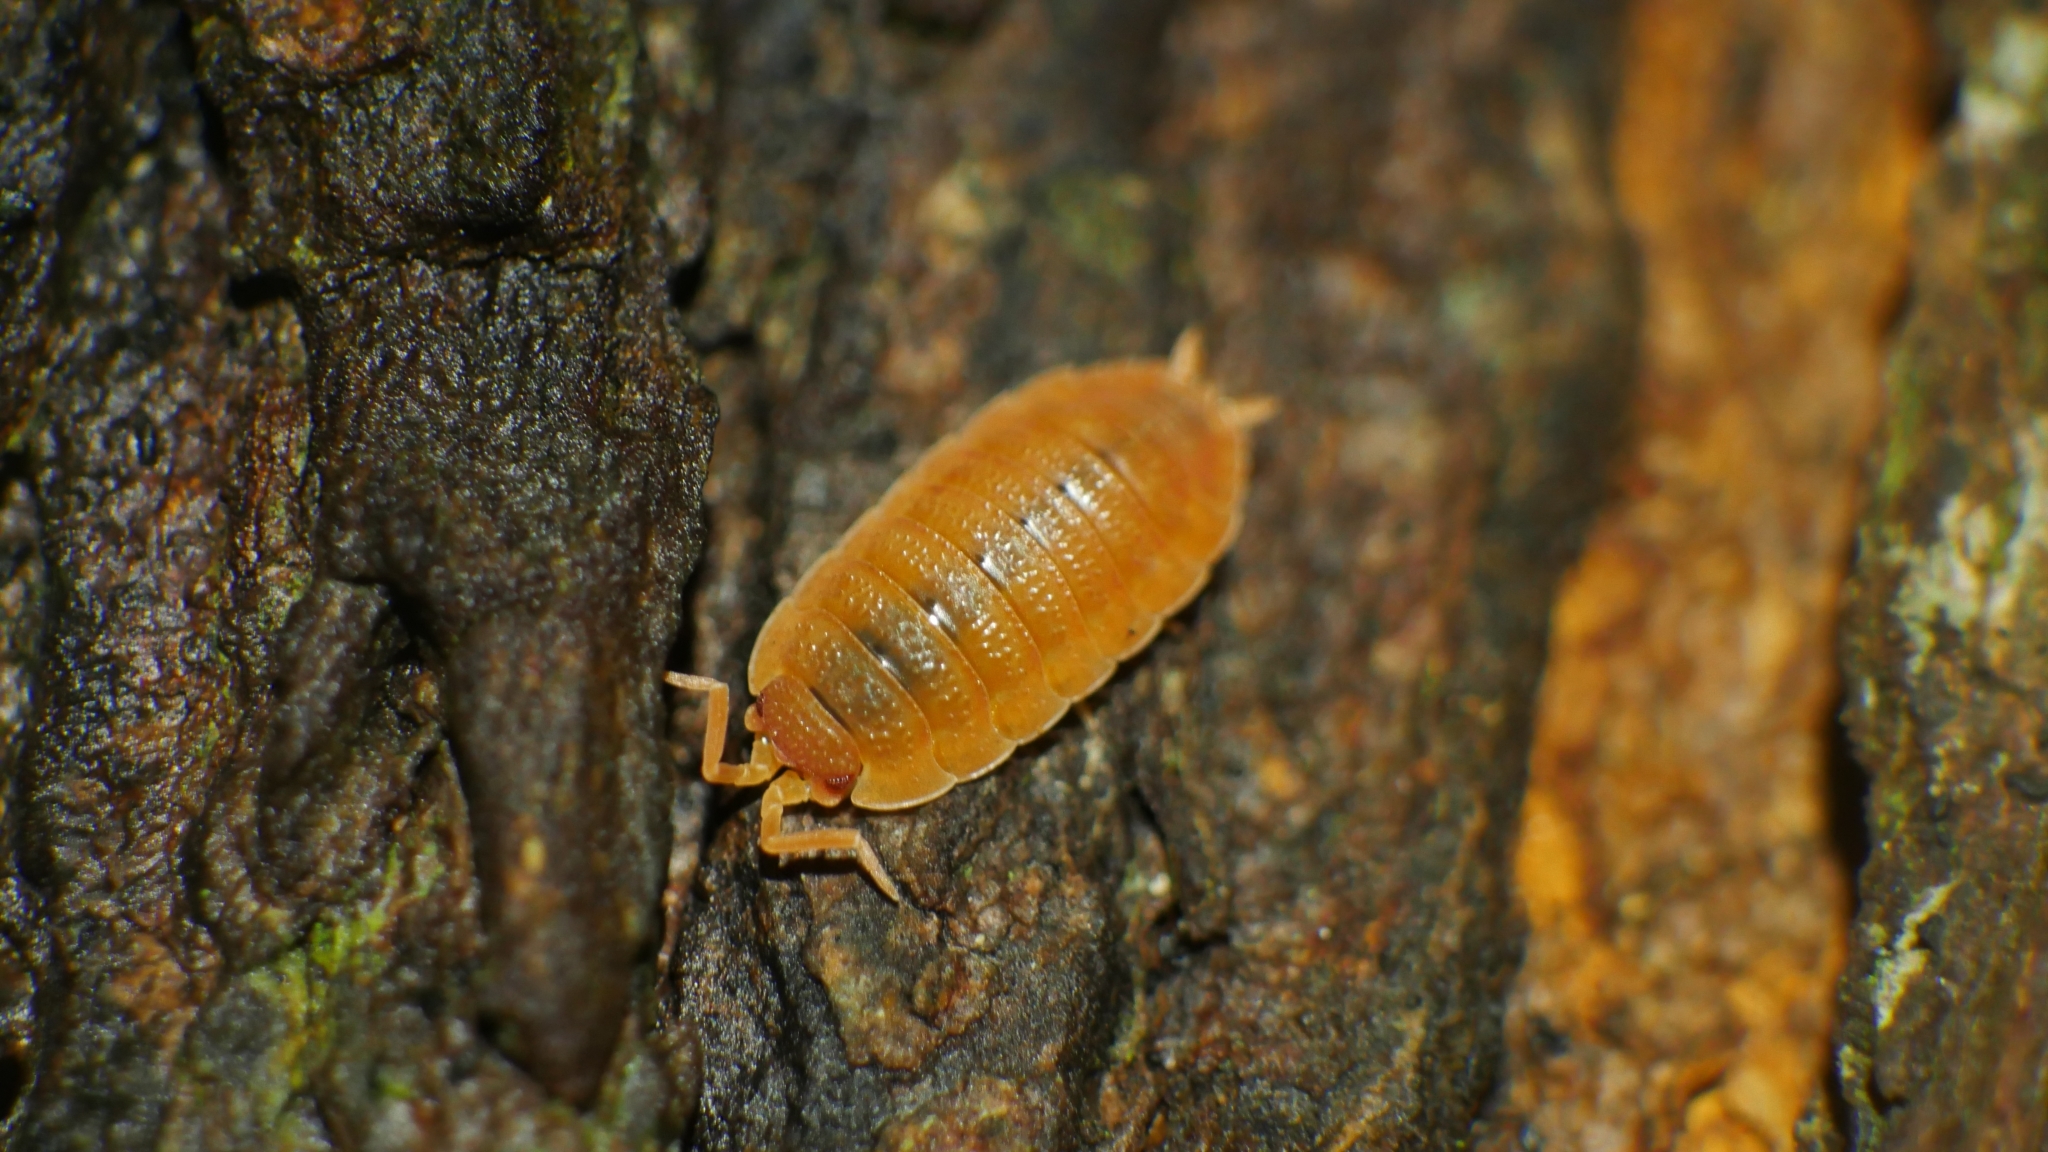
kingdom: Animalia
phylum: Arthropoda
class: Malacostraca
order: Isopoda
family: Porcellionidae
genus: Porcellio
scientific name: Porcellio scaber
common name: Common rough woodlouse
